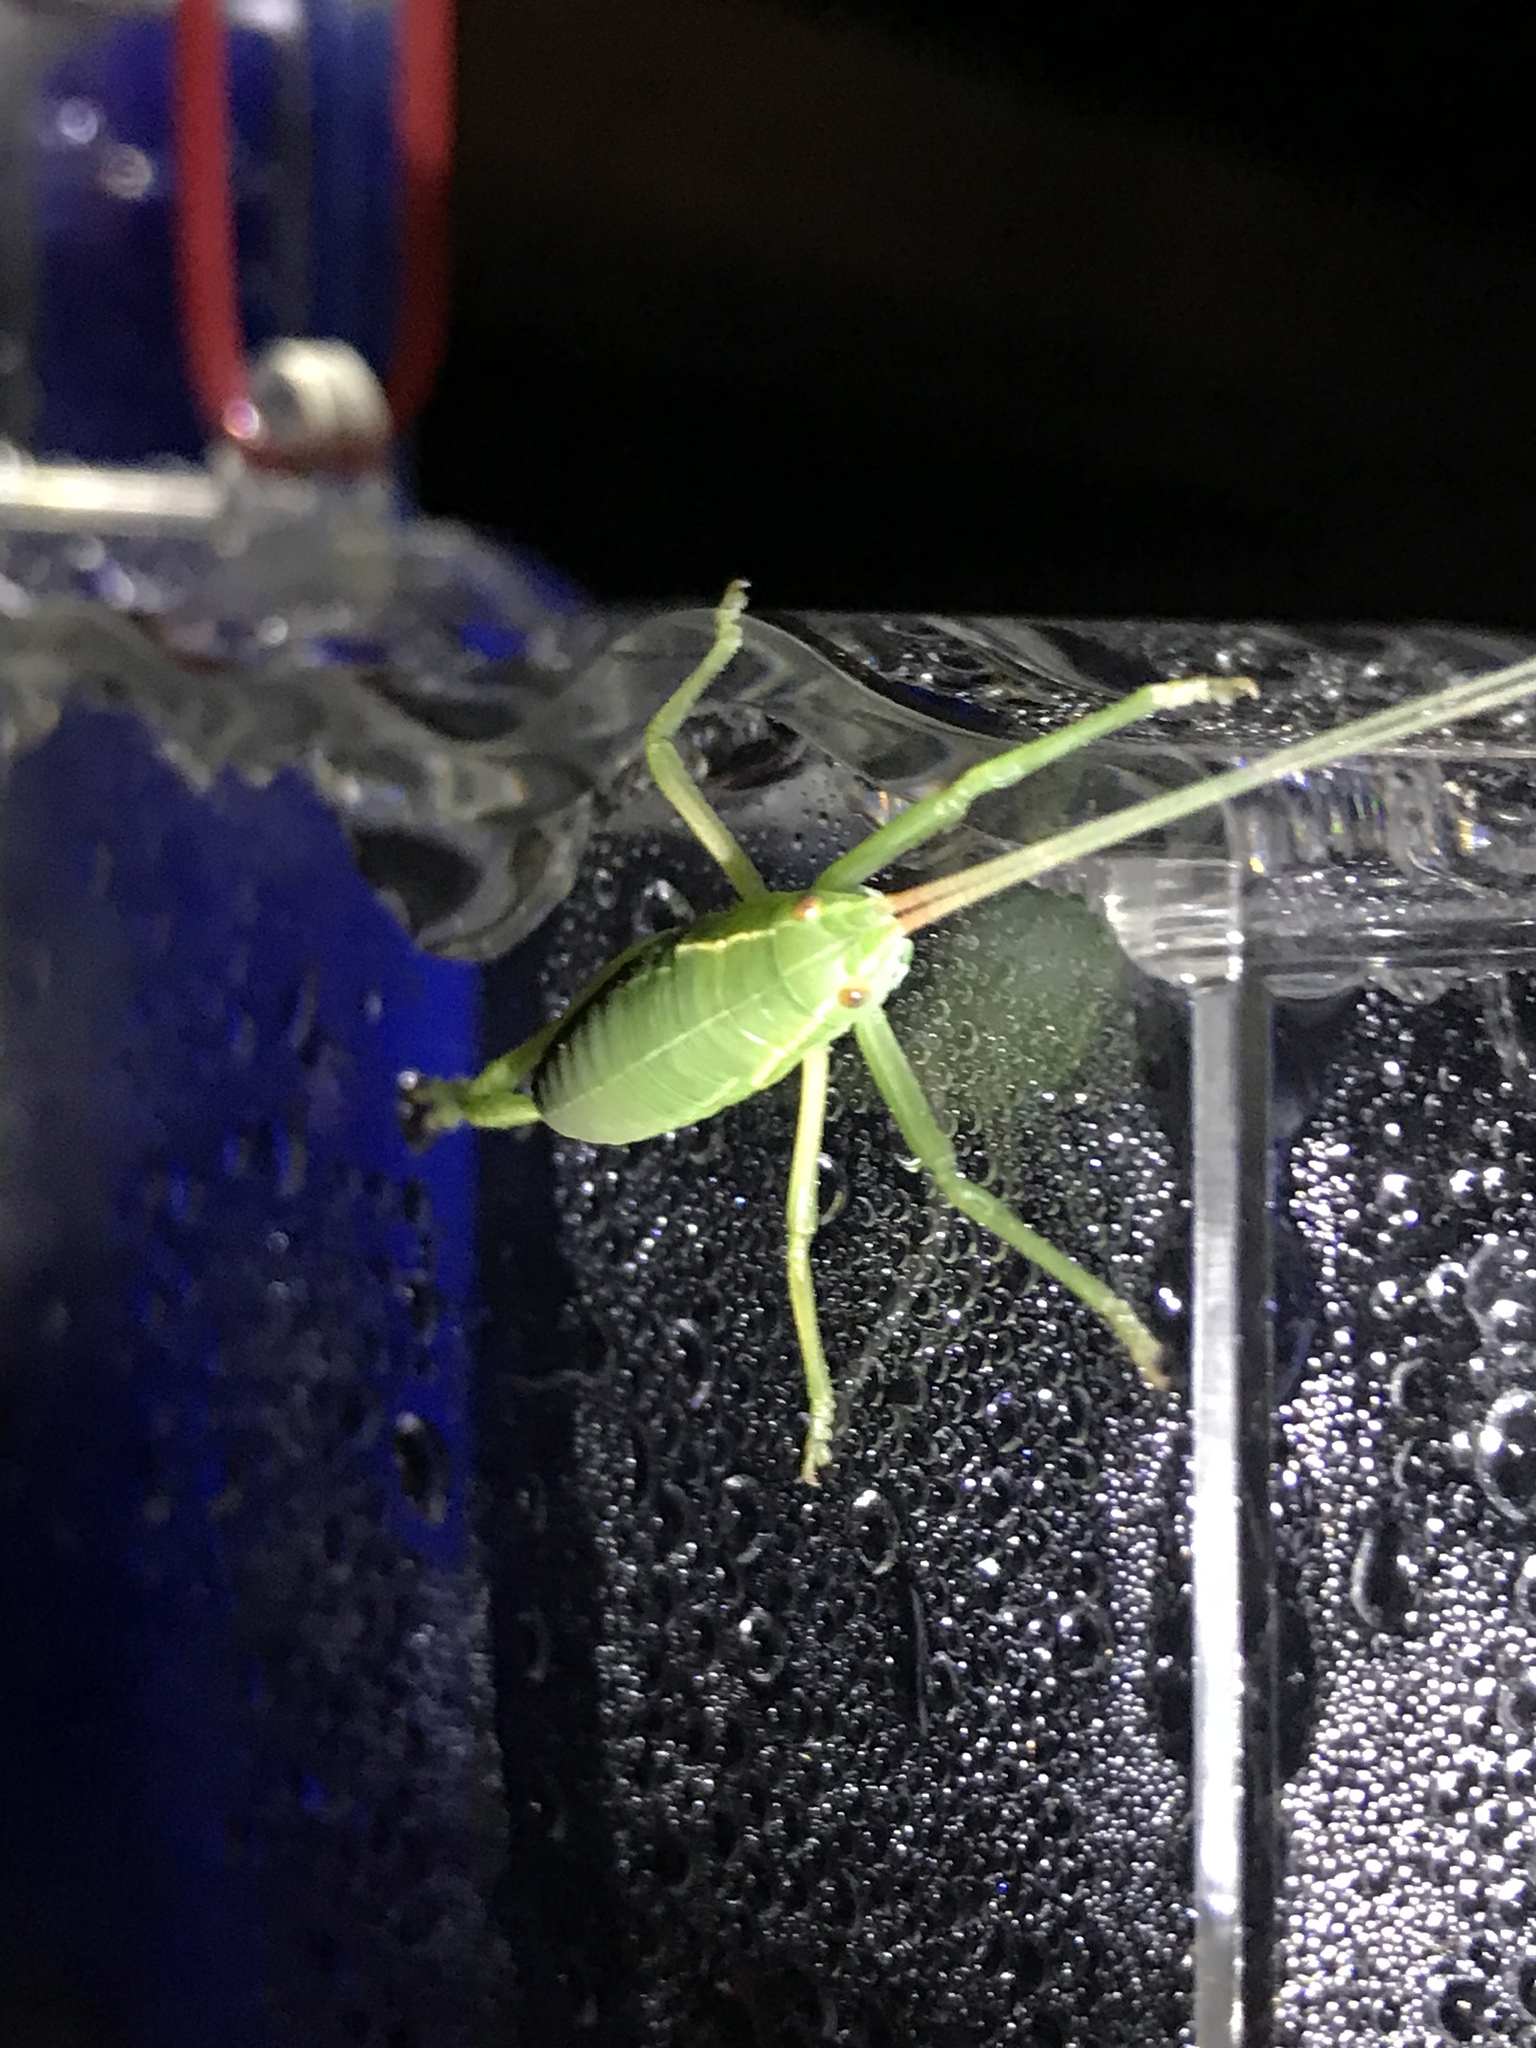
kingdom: Animalia
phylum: Arthropoda
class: Insecta
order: Orthoptera
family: Tettigoniidae
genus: Paracyrtophyllus
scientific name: Paracyrtophyllus robustus
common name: Central texas leaf katydid
